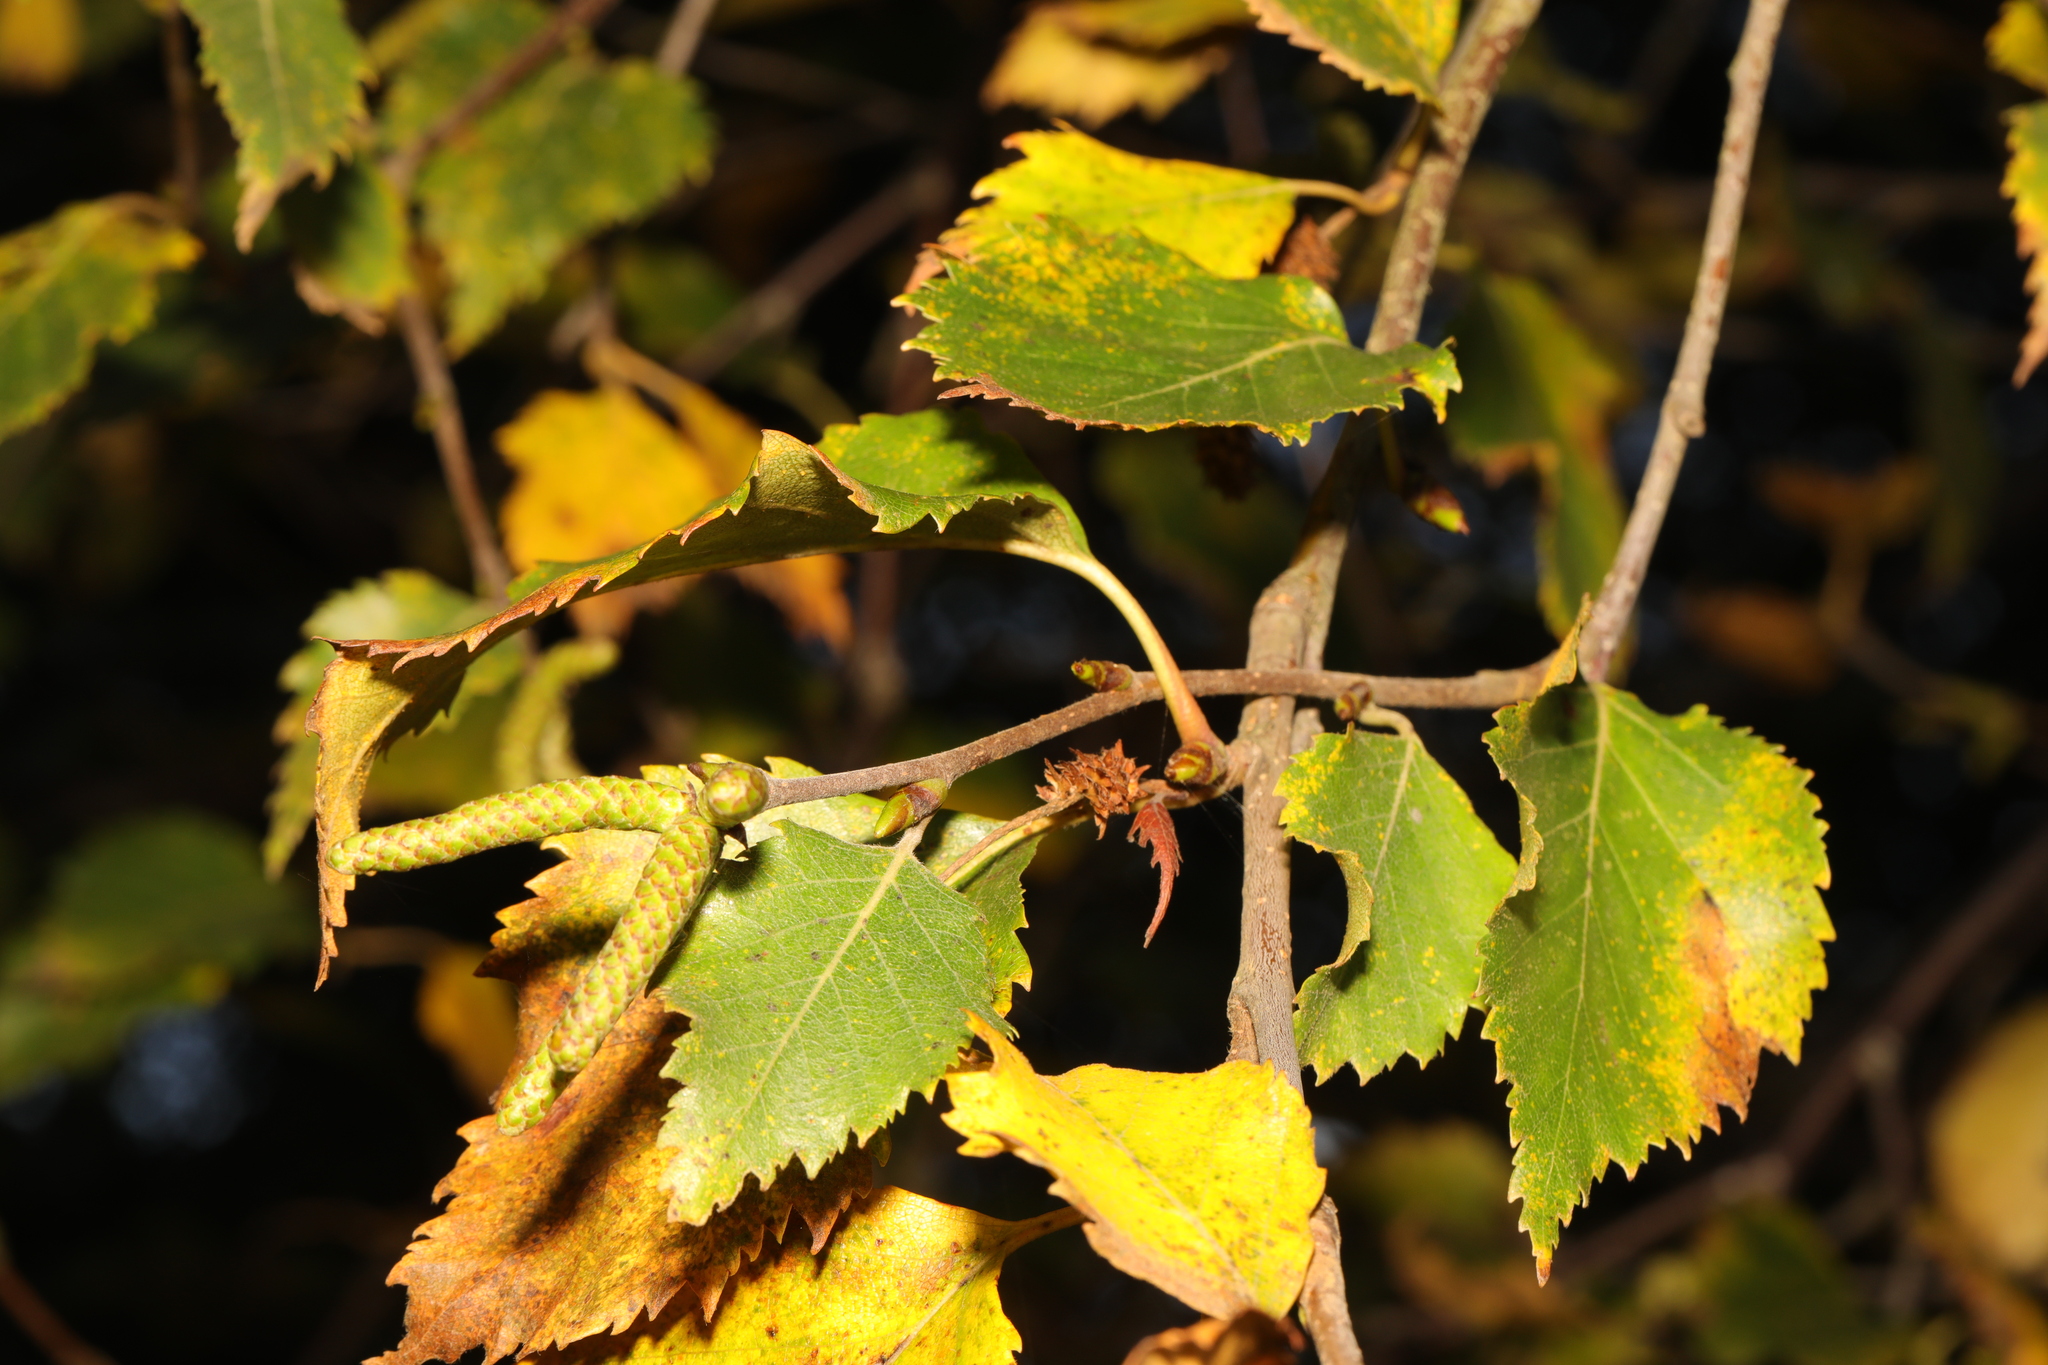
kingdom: Plantae
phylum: Tracheophyta
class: Magnoliopsida
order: Fagales
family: Betulaceae
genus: Betula
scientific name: Betula pendula
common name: Silver birch
